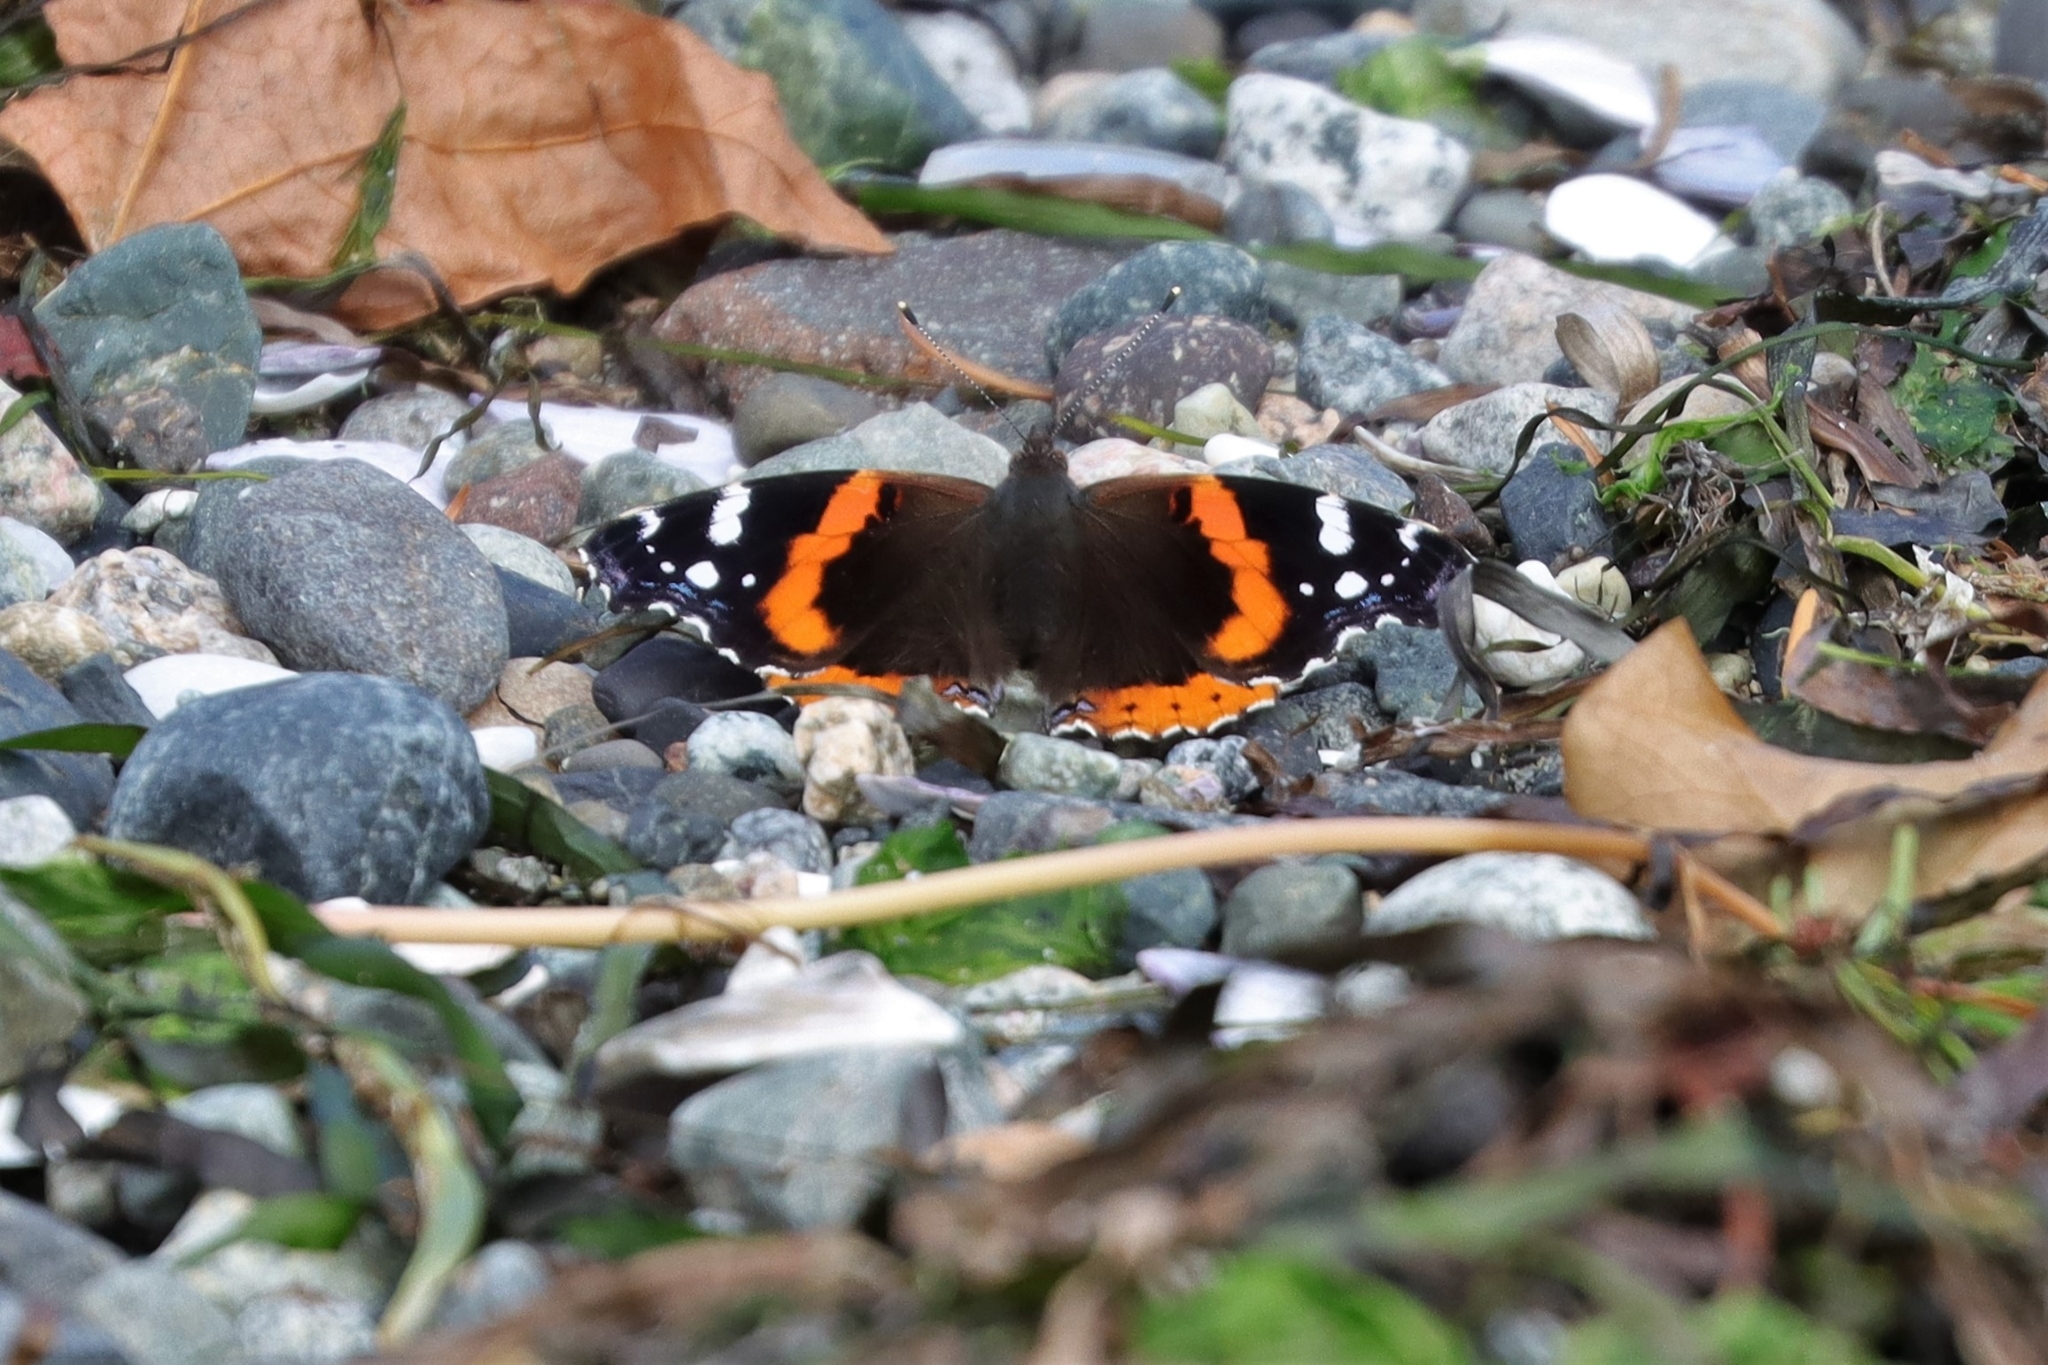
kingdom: Animalia
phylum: Arthropoda
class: Insecta
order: Lepidoptera
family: Nymphalidae
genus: Vanessa
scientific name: Vanessa atalanta
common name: Red admiral
